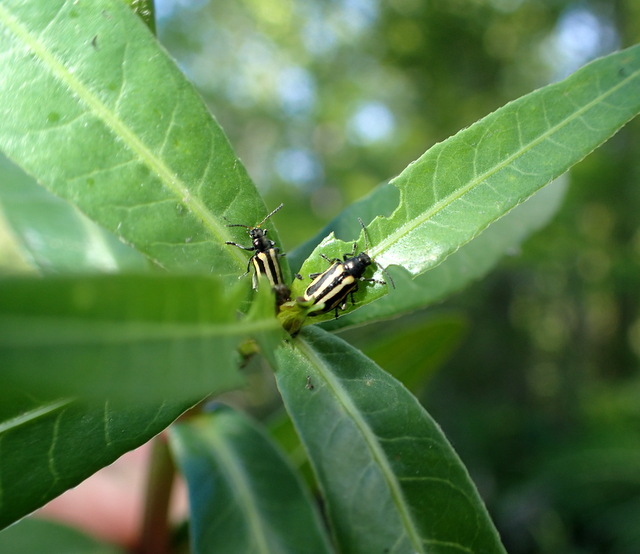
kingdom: Animalia
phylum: Arthropoda
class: Insecta
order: Coleoptera
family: Chrysomelidae
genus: Agasicles
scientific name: Agasicles hygrophila
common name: Alligatorweed flea beetle
